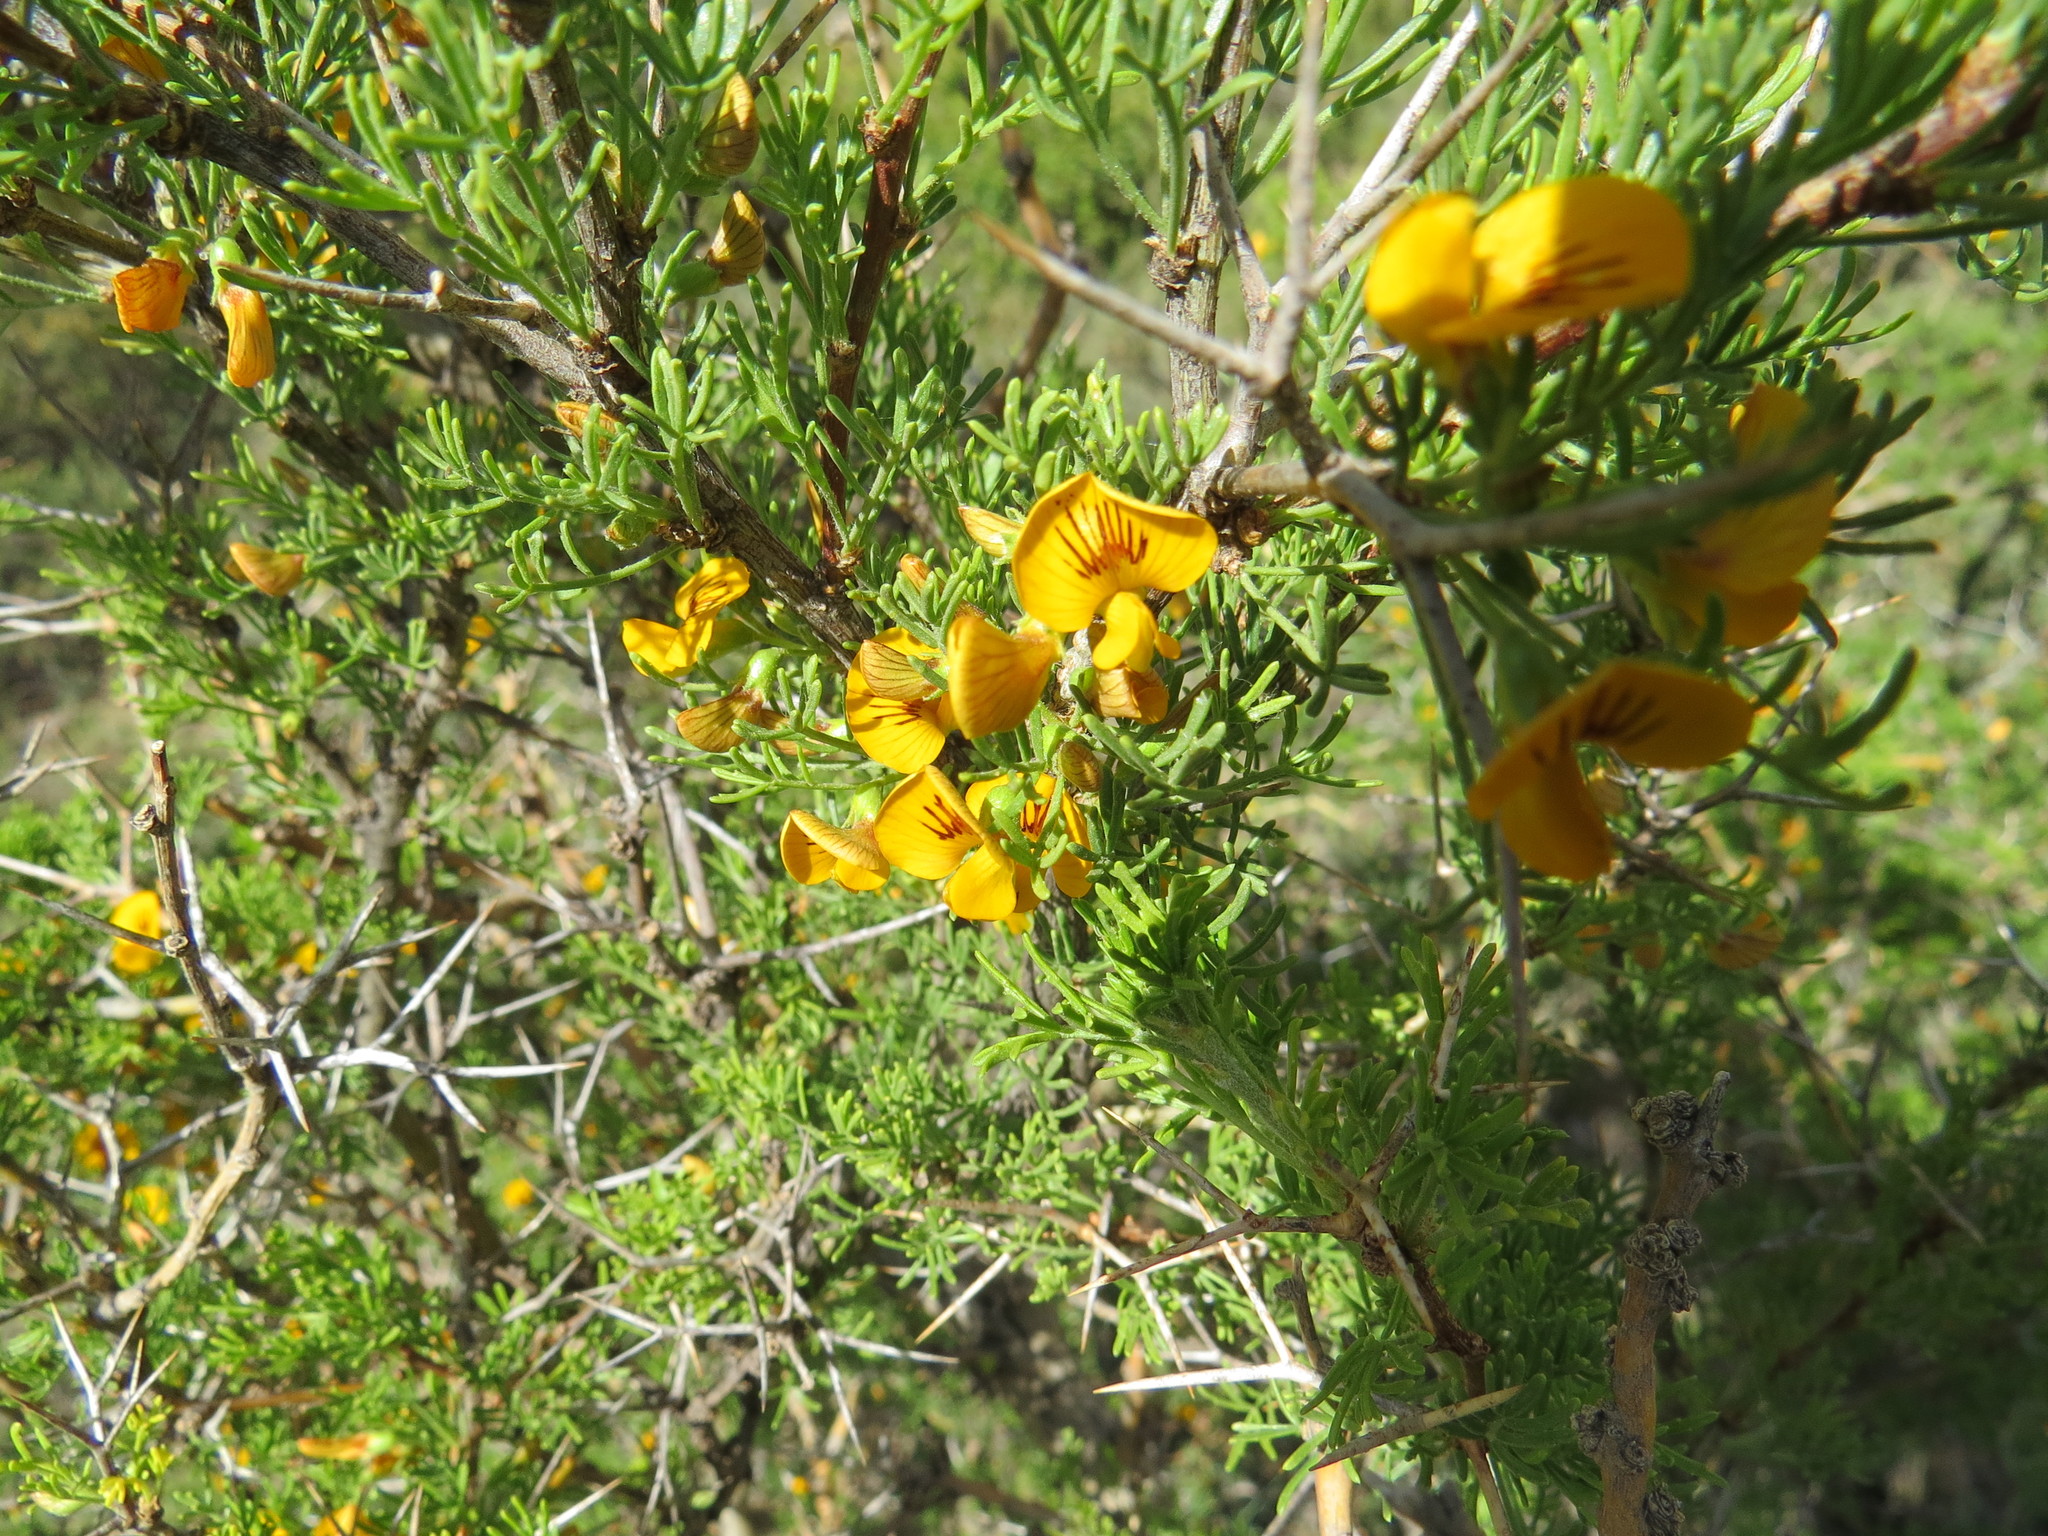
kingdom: Plantae
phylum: Tracheophyta
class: Magnoliopsida
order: Fabales
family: Fabaceae
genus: Adesmia
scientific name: Adesmia pinifolia
